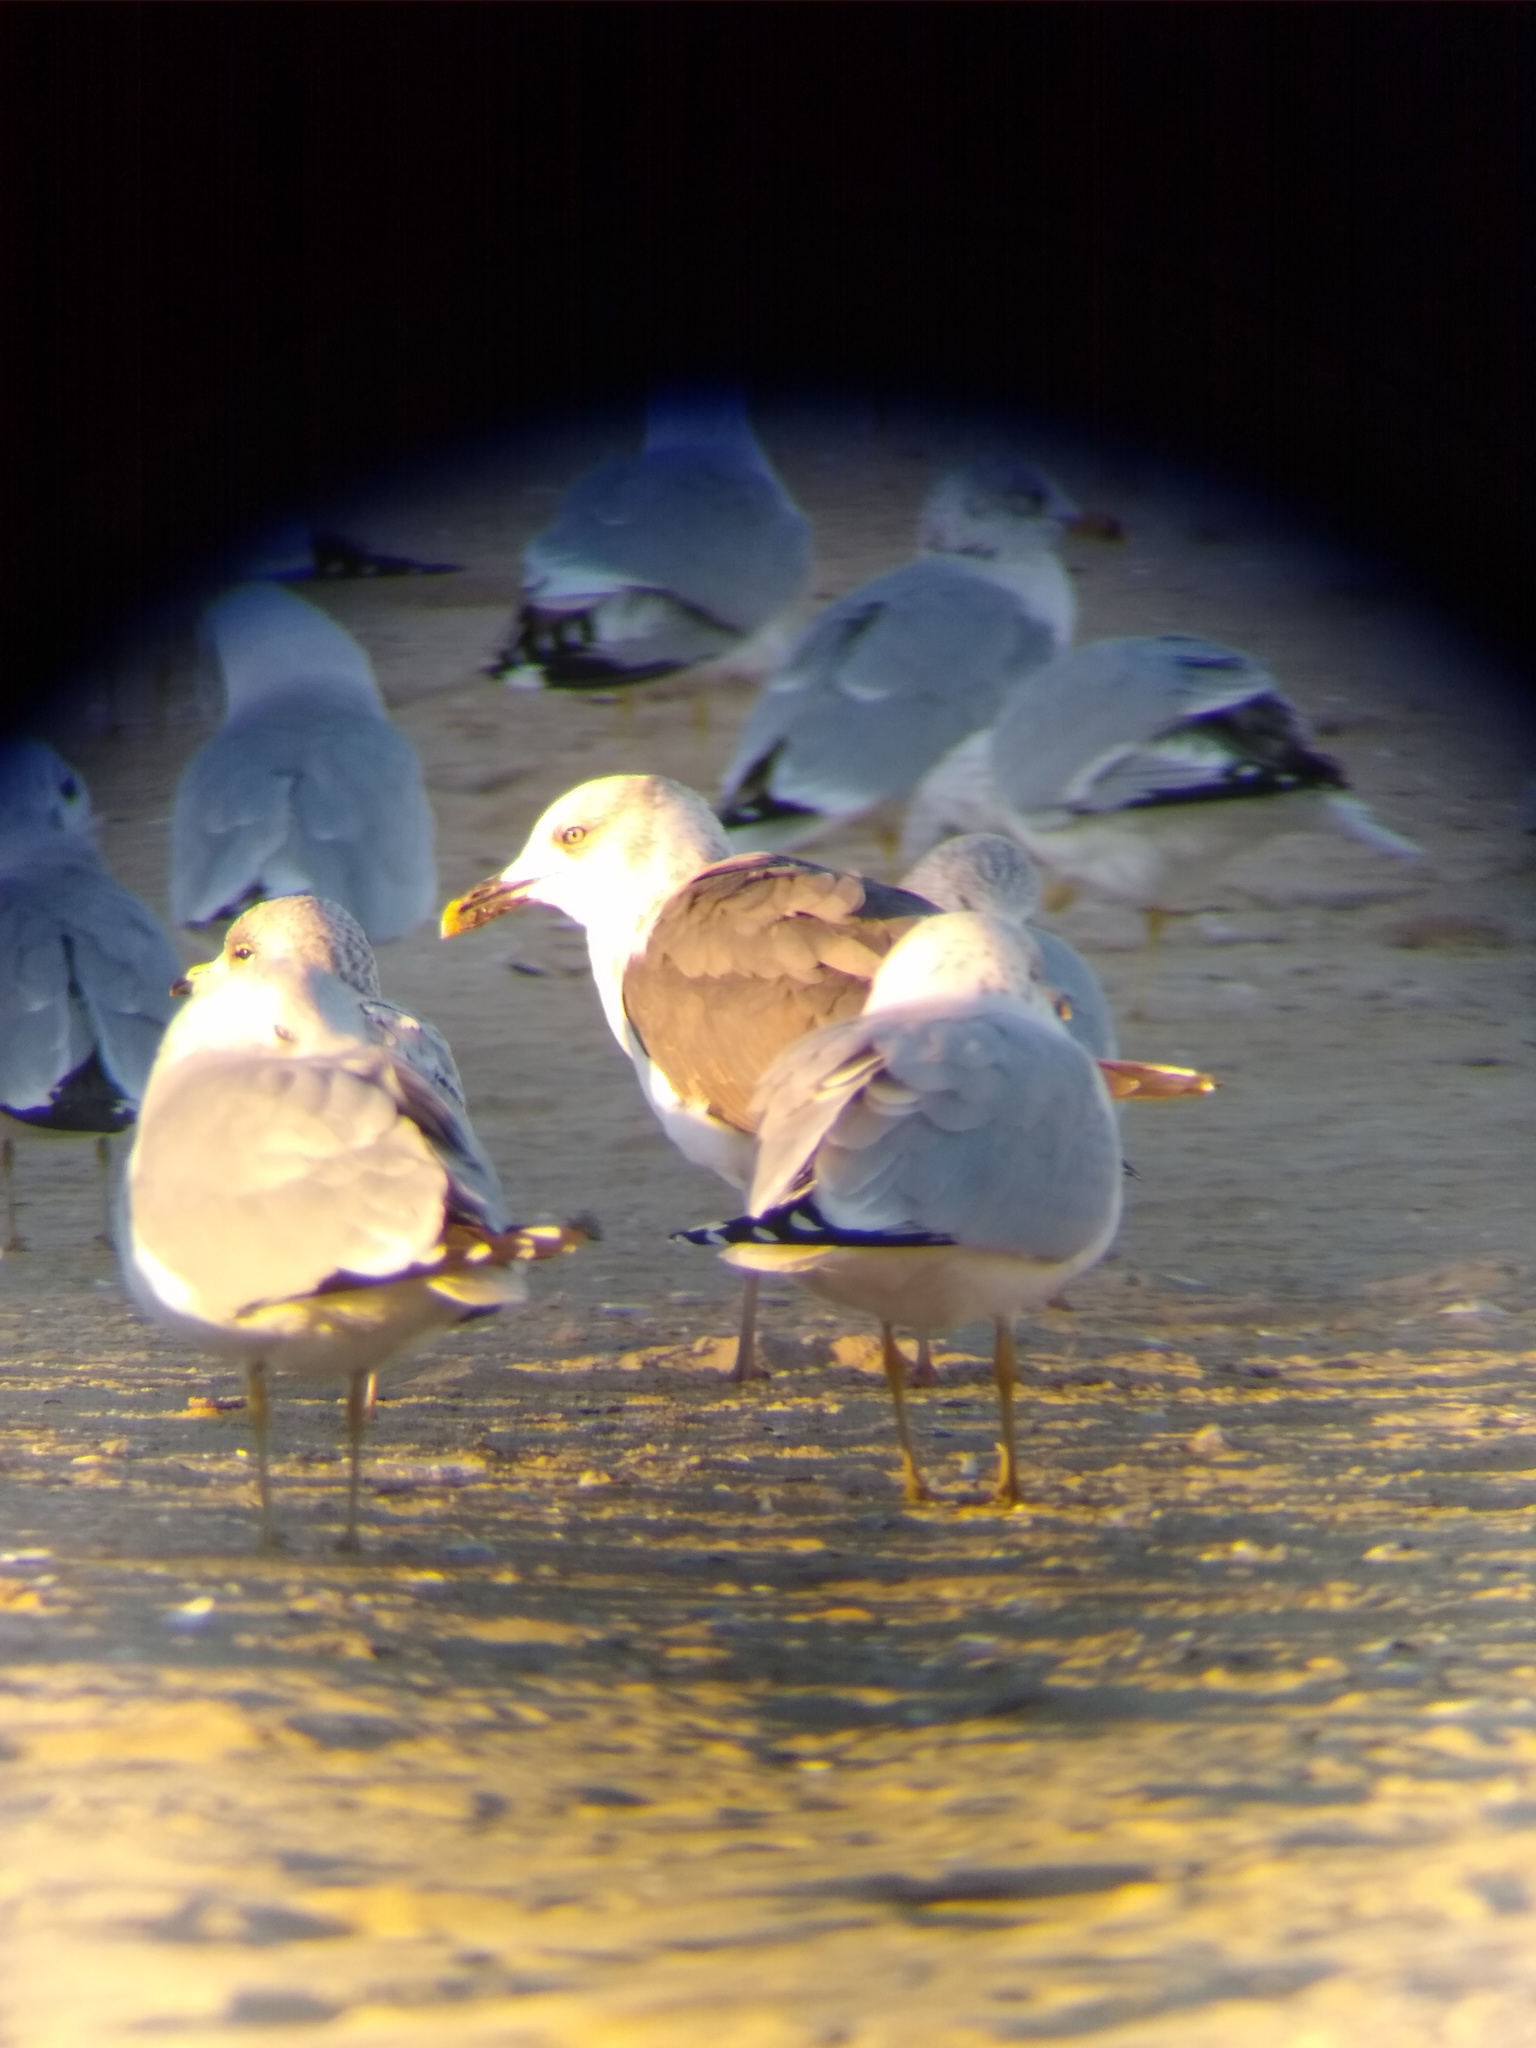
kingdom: Animalia
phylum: Chordata
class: Aves
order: Charadriiformes
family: Laridae
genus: Larus
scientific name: Larus fuscus
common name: Lesser black-backed gull
